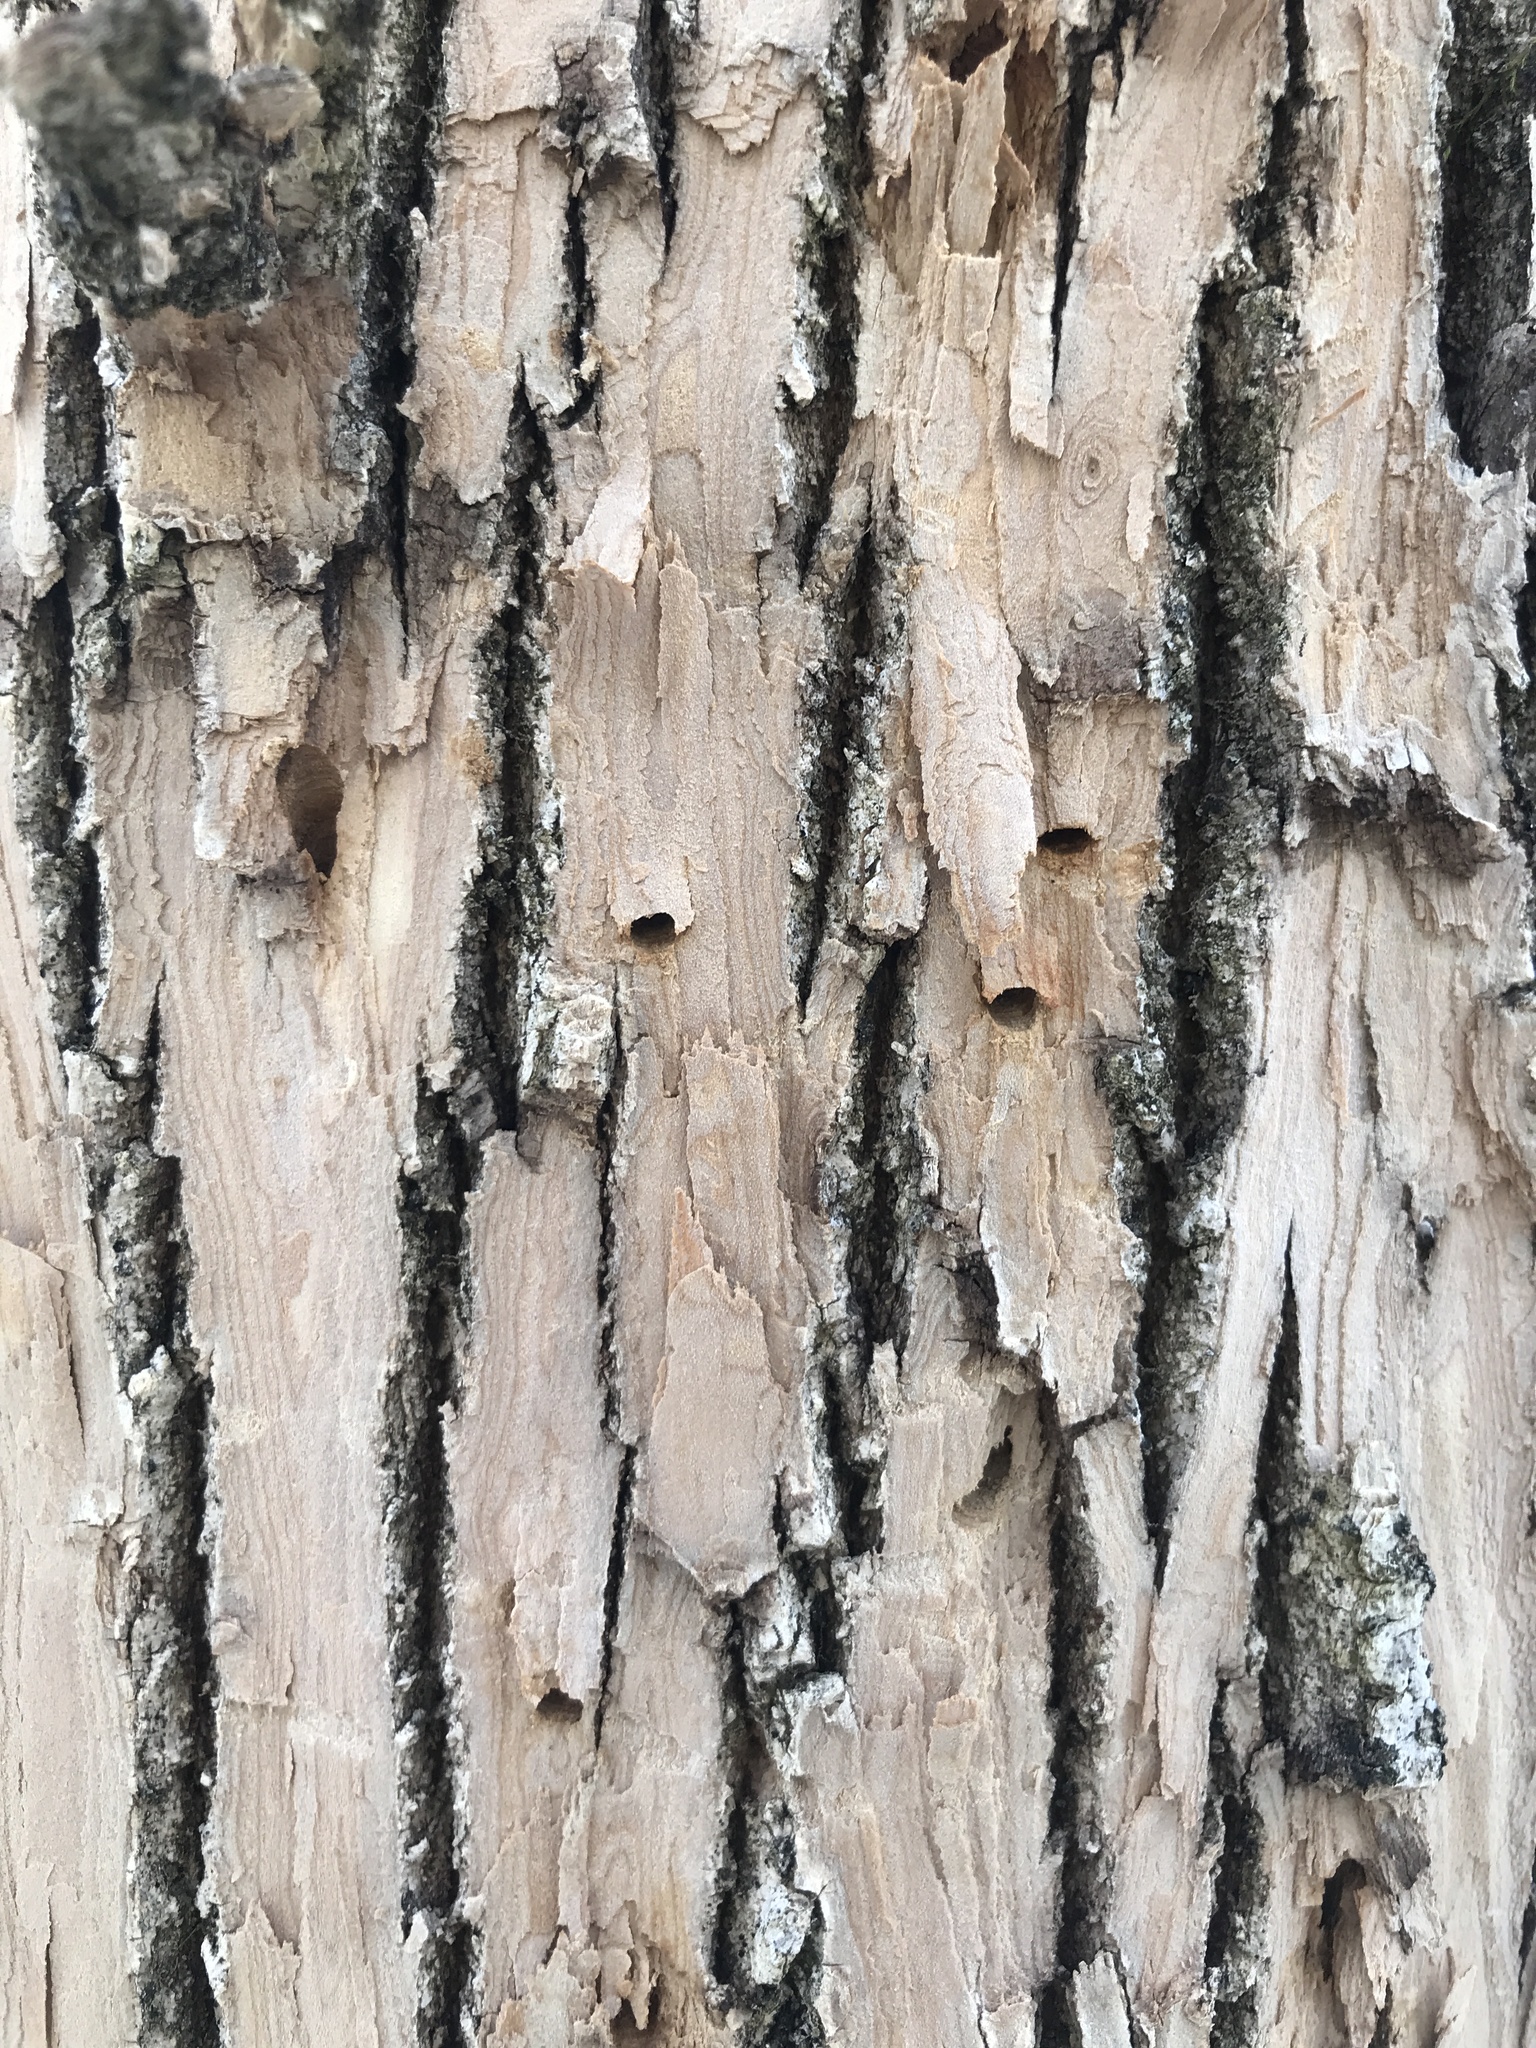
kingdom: Animalia
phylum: Arthropoda
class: Insecta
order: Coleoptera
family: Buprestidae
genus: Agrilus
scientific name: Agrilus planipennis
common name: Emerald ash borer
